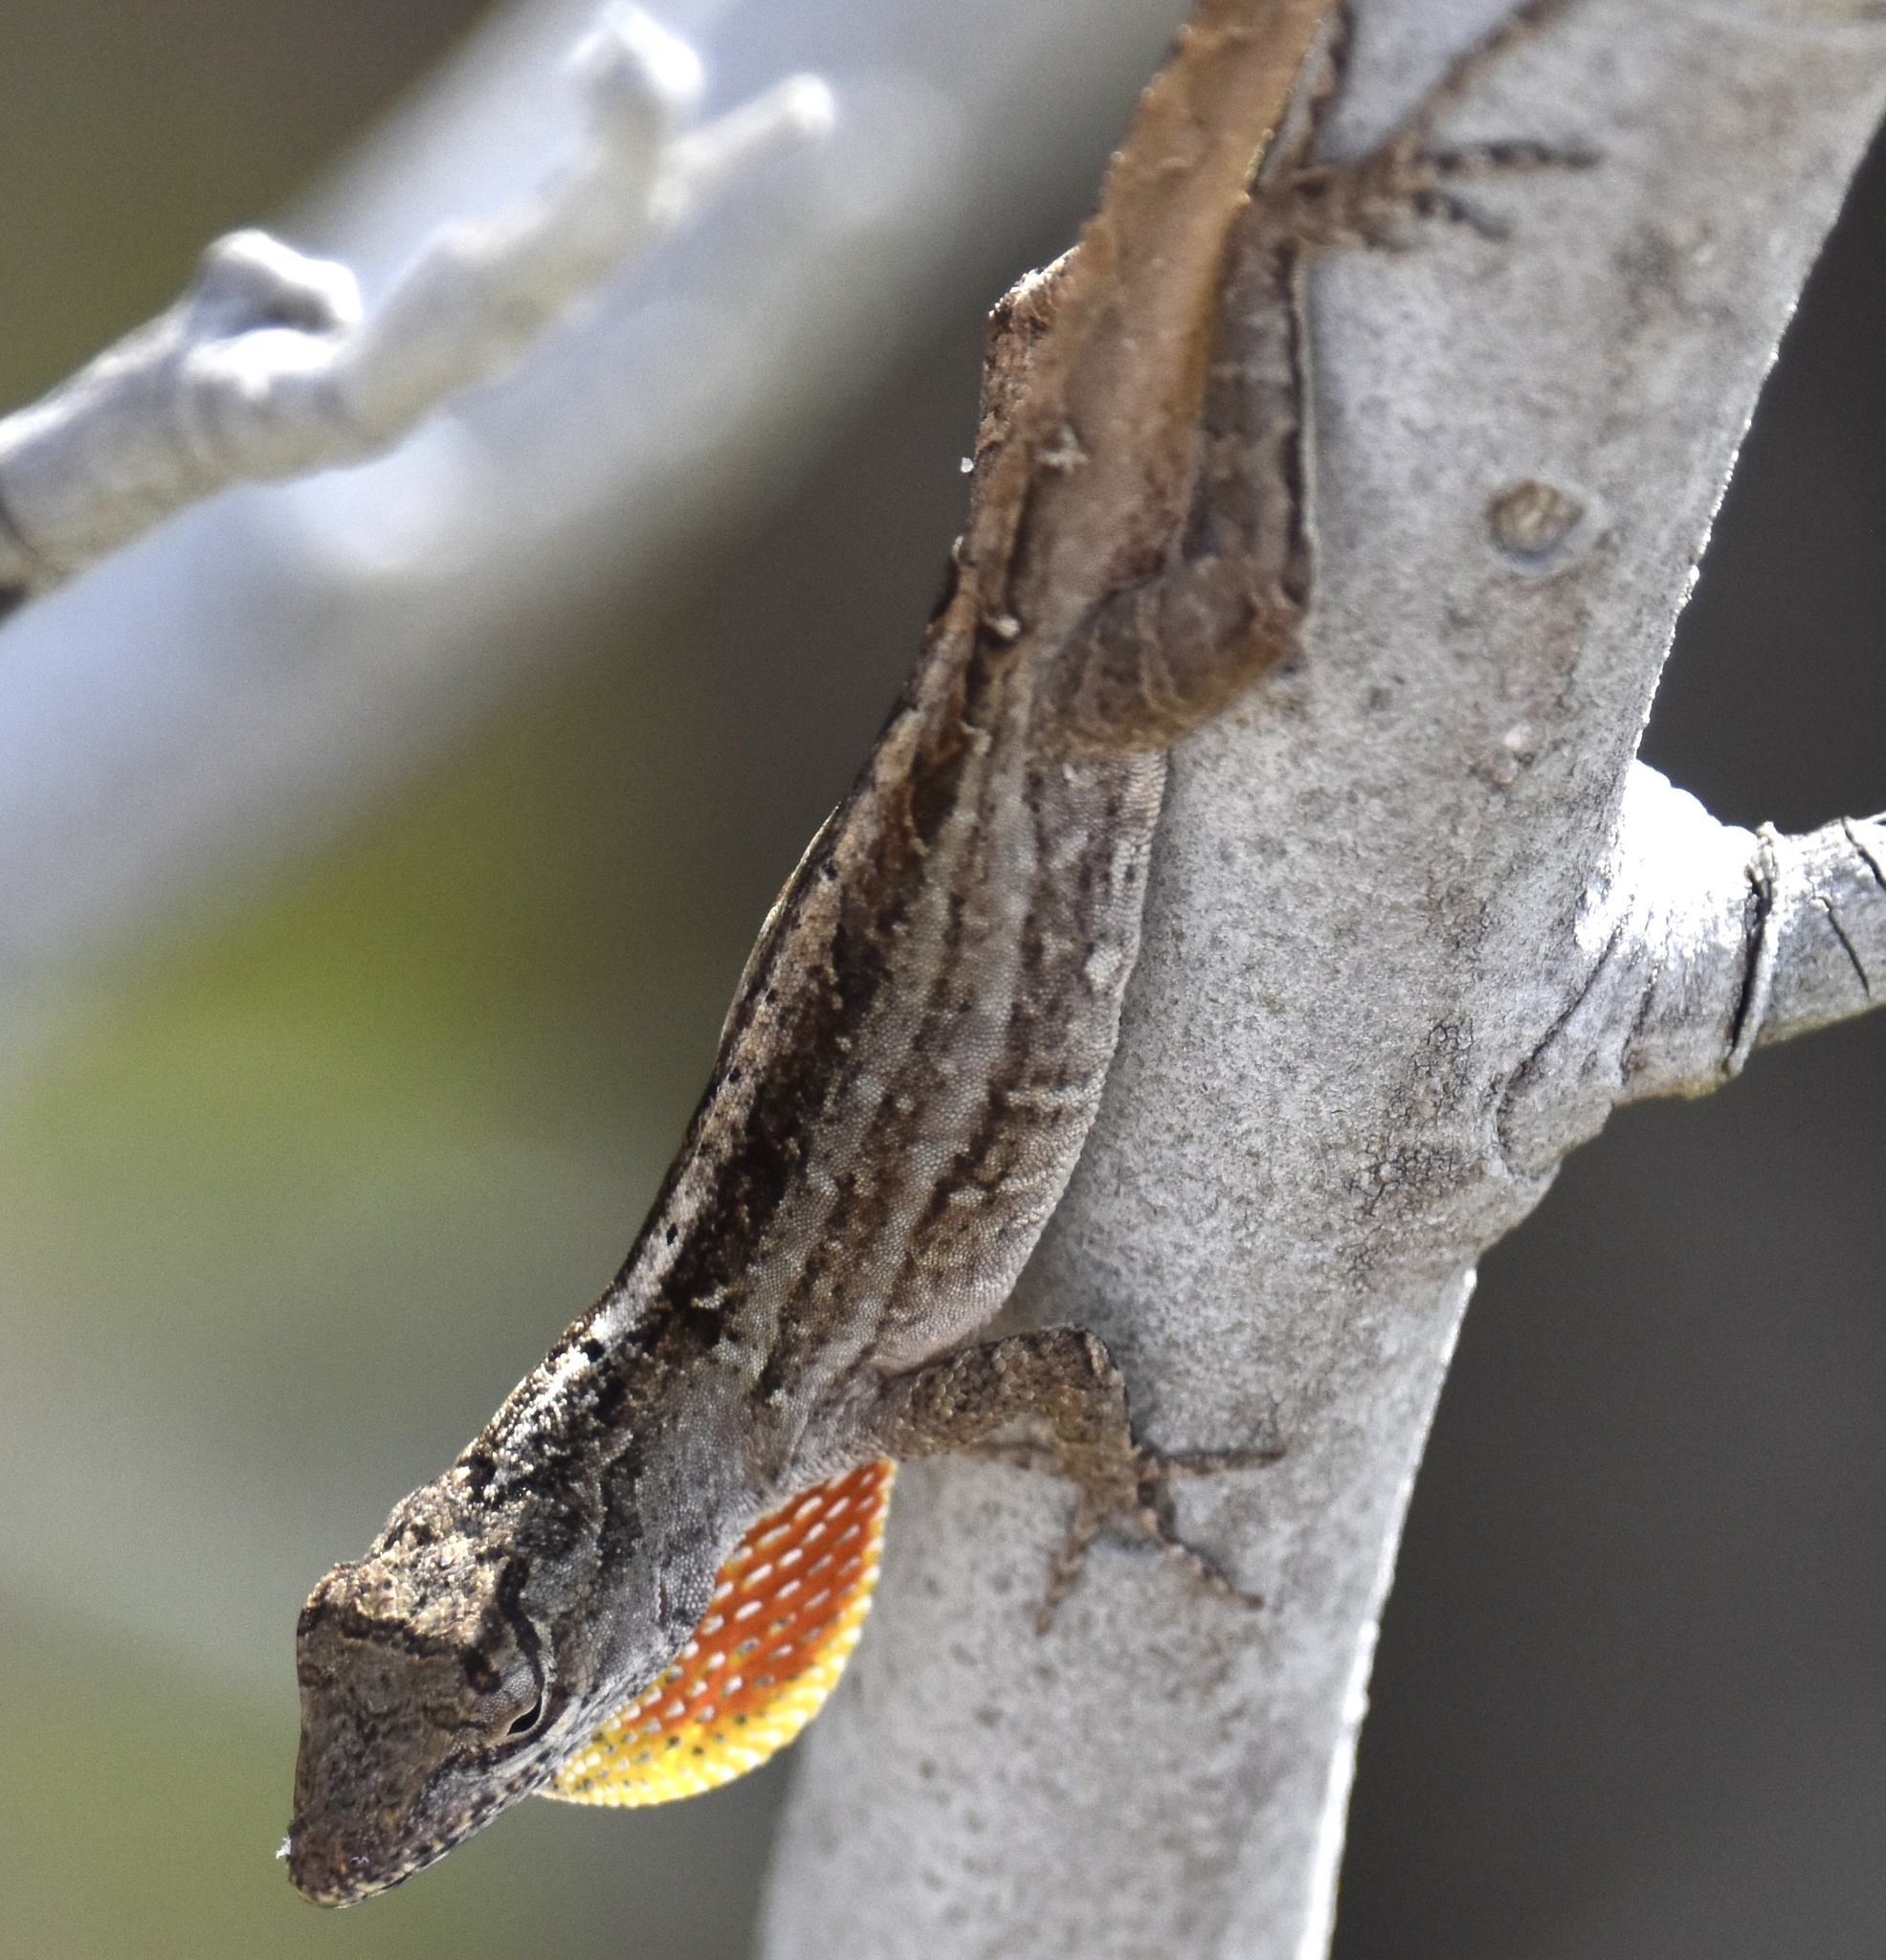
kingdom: Animalia
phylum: Chordata
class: Squamata
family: Dactyloidae
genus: Anolis
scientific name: Anolis sagrei
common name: Brown anole
